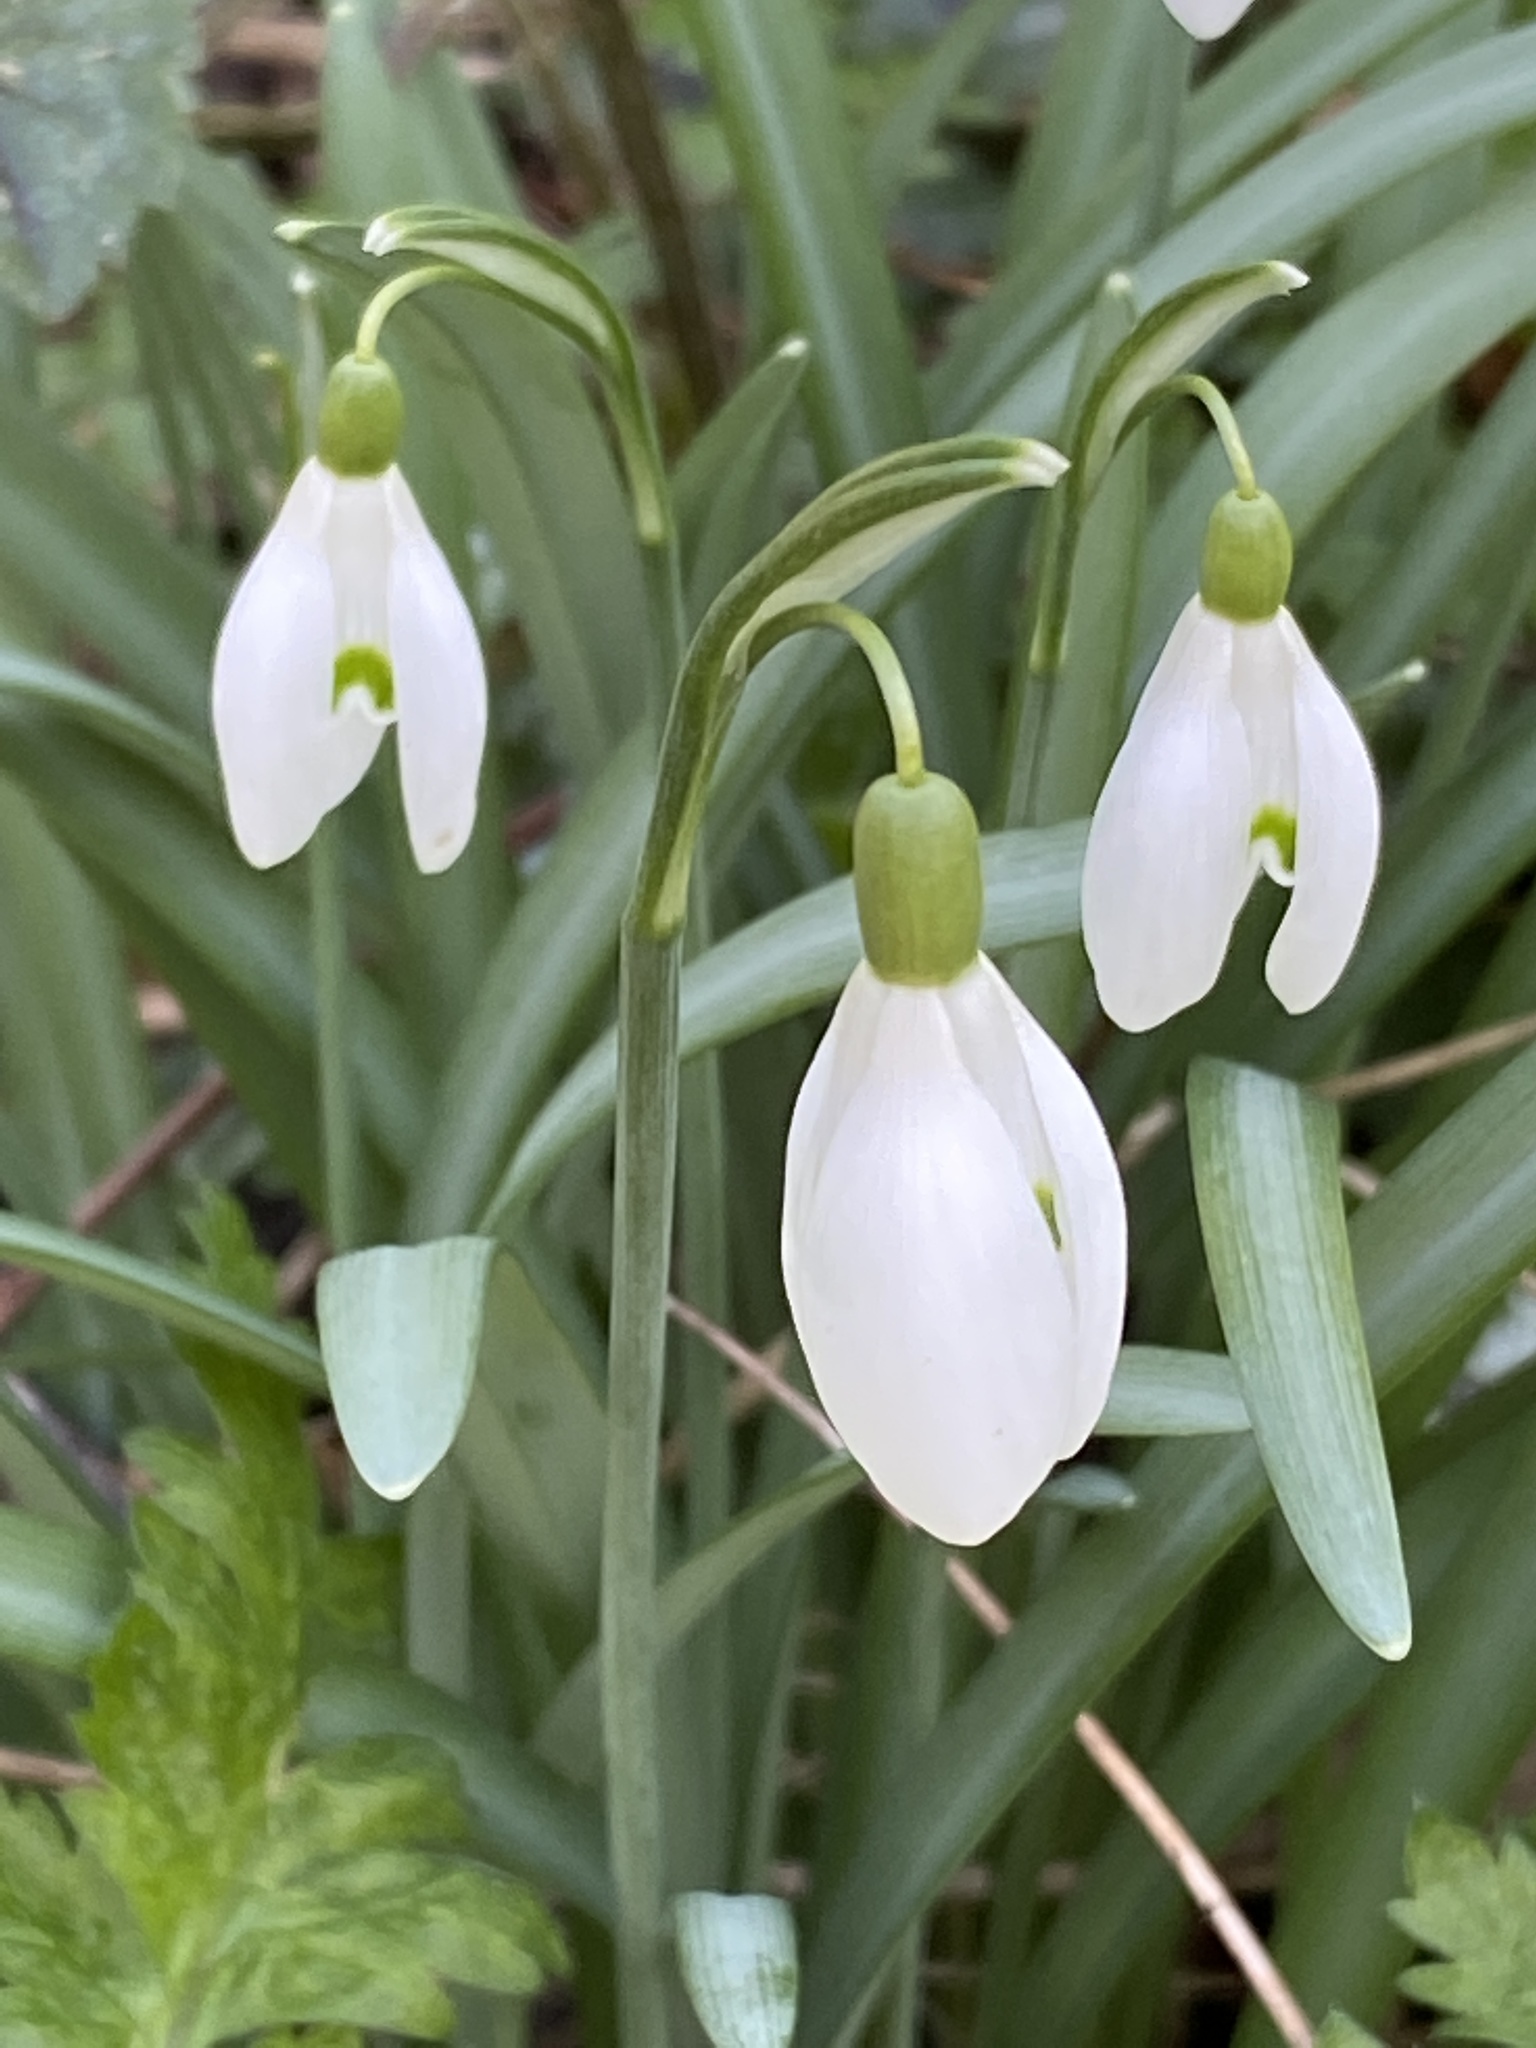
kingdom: Plantae
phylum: Tracheophyta
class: Liliopsida
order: Asparagales
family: Amaryllidaceae
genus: Galanthus
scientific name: Galanthus nivalis
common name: Snowdrop
